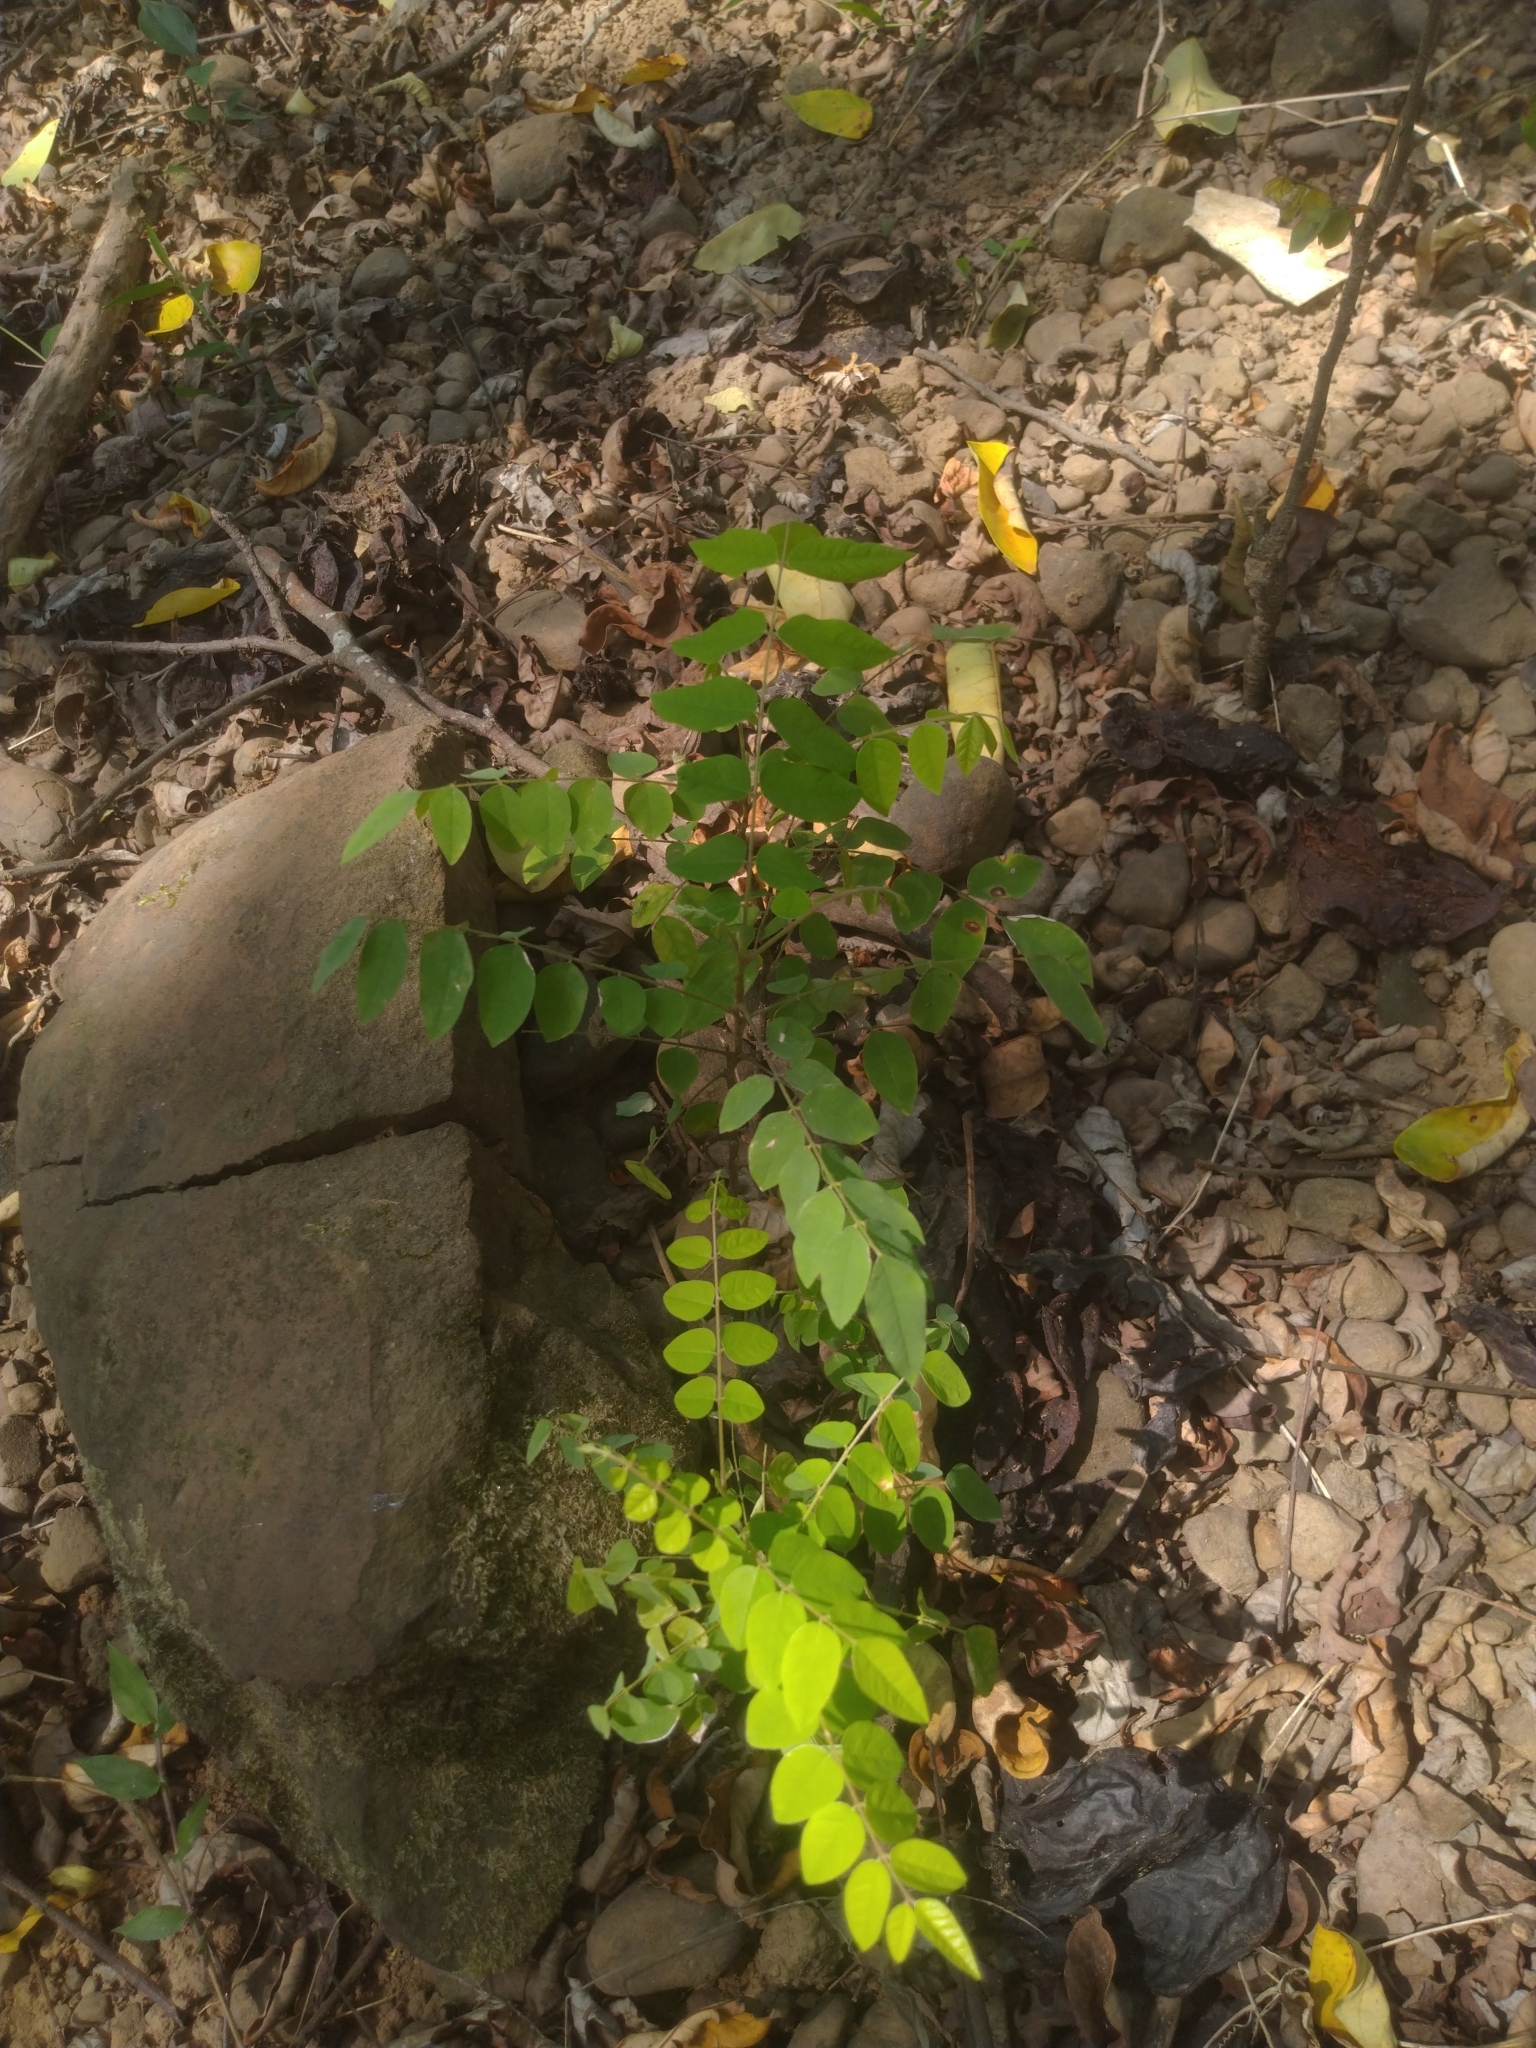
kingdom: Plantae
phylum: Tracheophyta
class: Magnoliopsida
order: Oxalidales
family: Oxalidaceae
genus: Averrhoa
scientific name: Averrhoa carambola
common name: Blimbing
